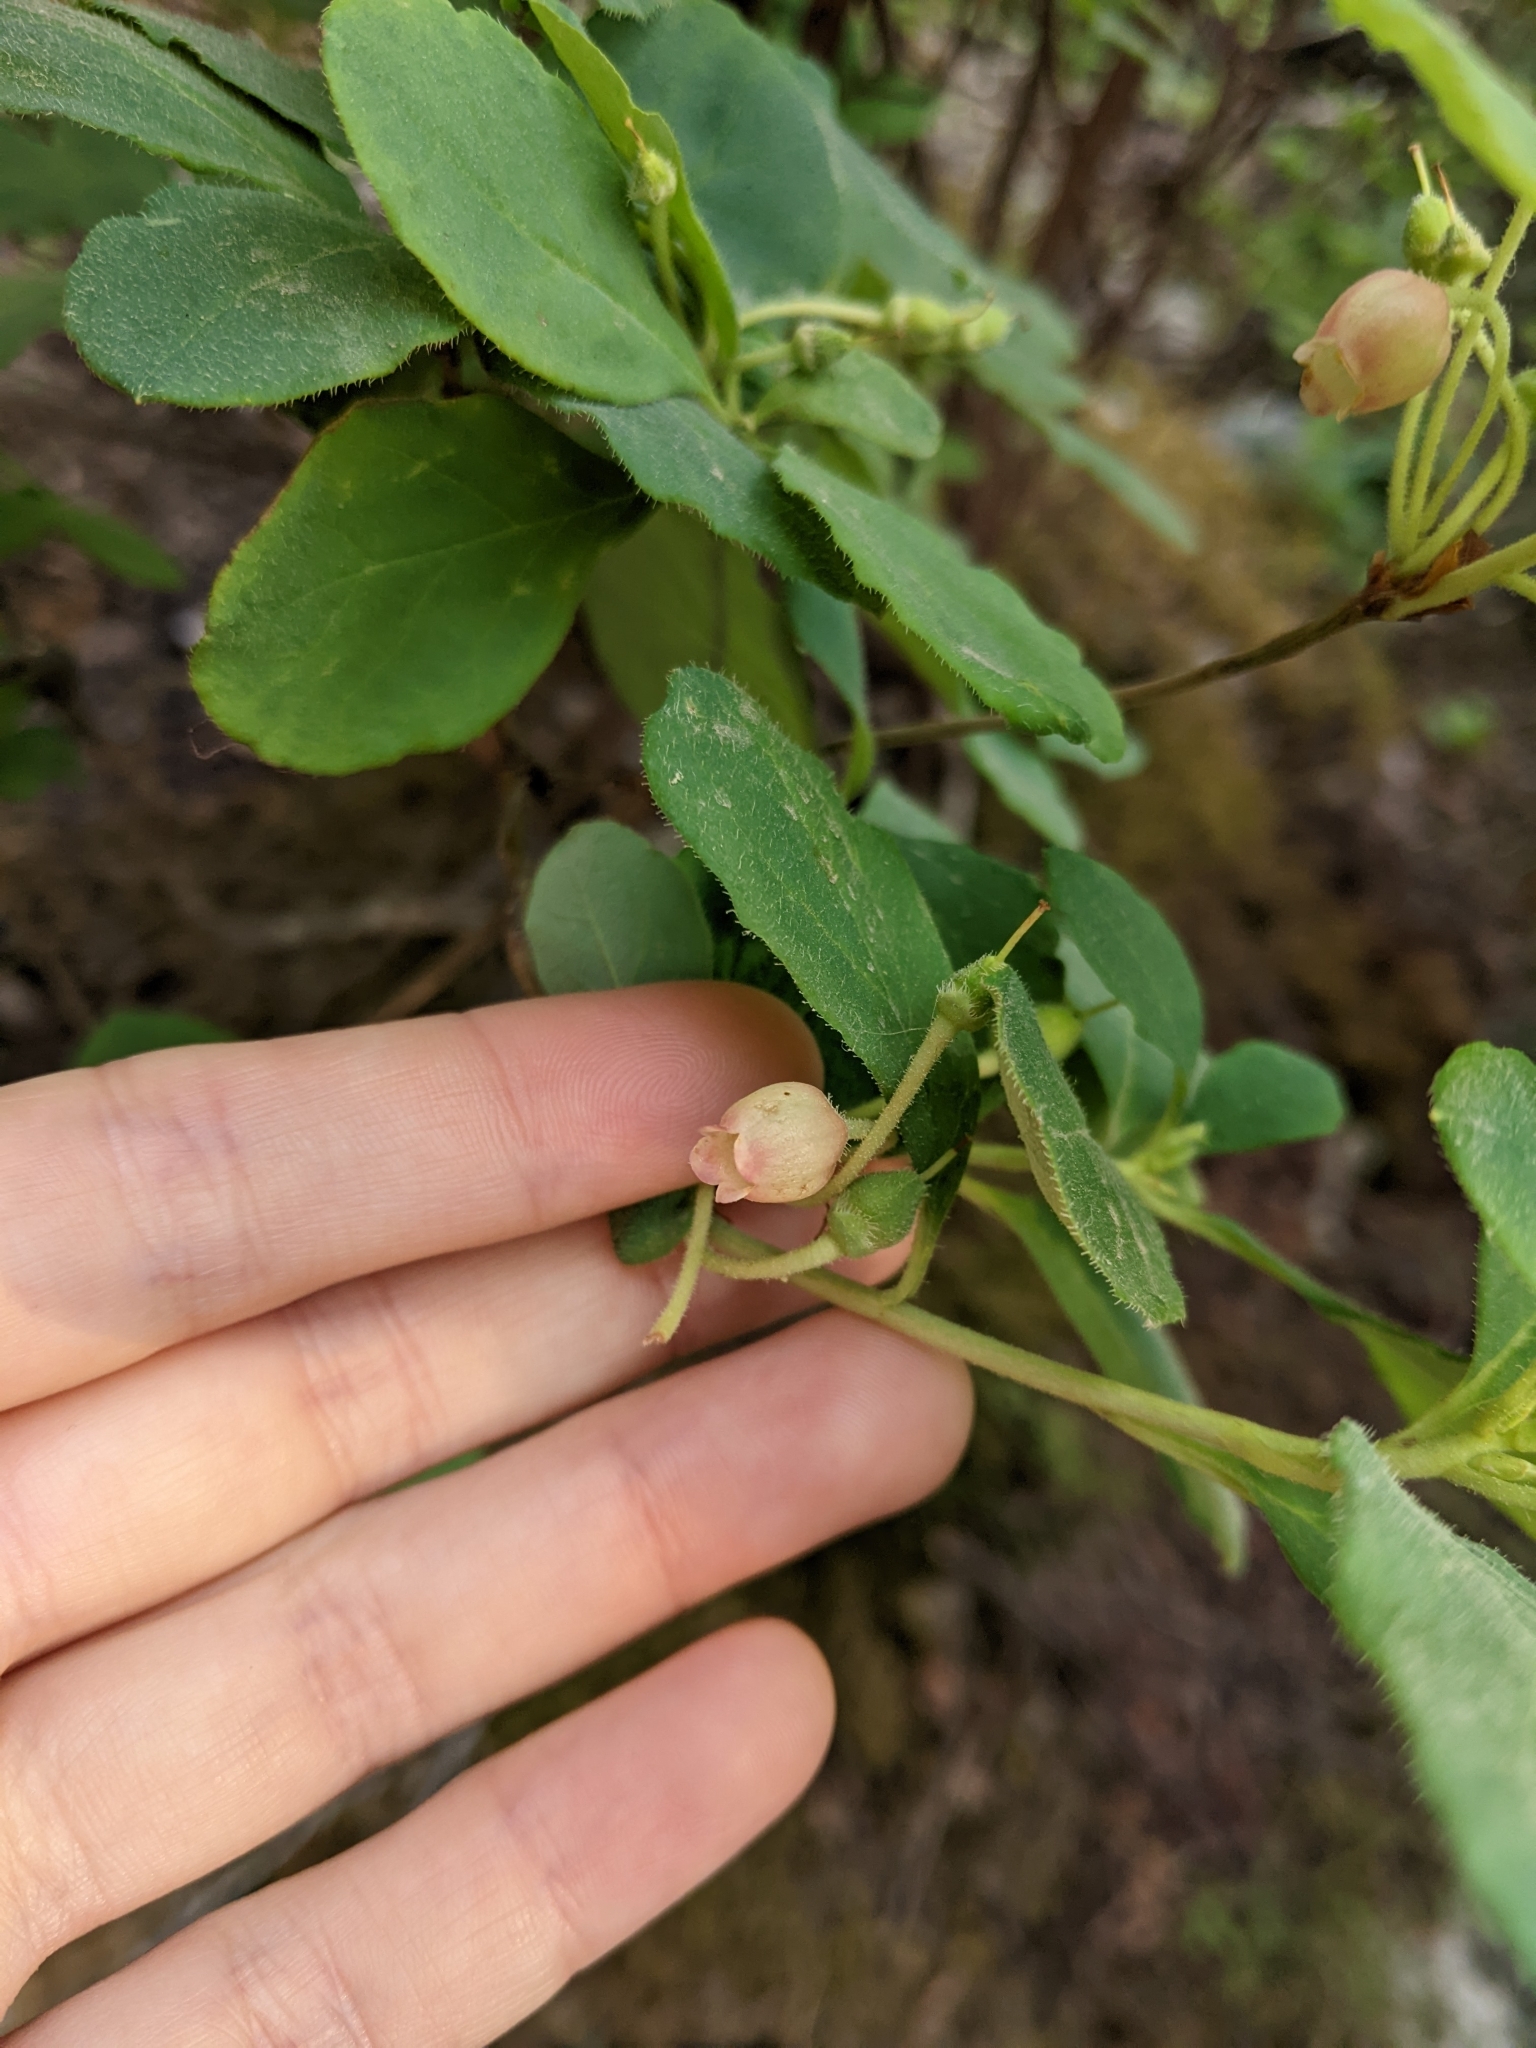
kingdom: Plantae
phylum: Tracheophyta
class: Magnoliopsida
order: Ericales
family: Ericaceae
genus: Rhododendron
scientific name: Rhododendron menziesii
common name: Pacific menziesia
